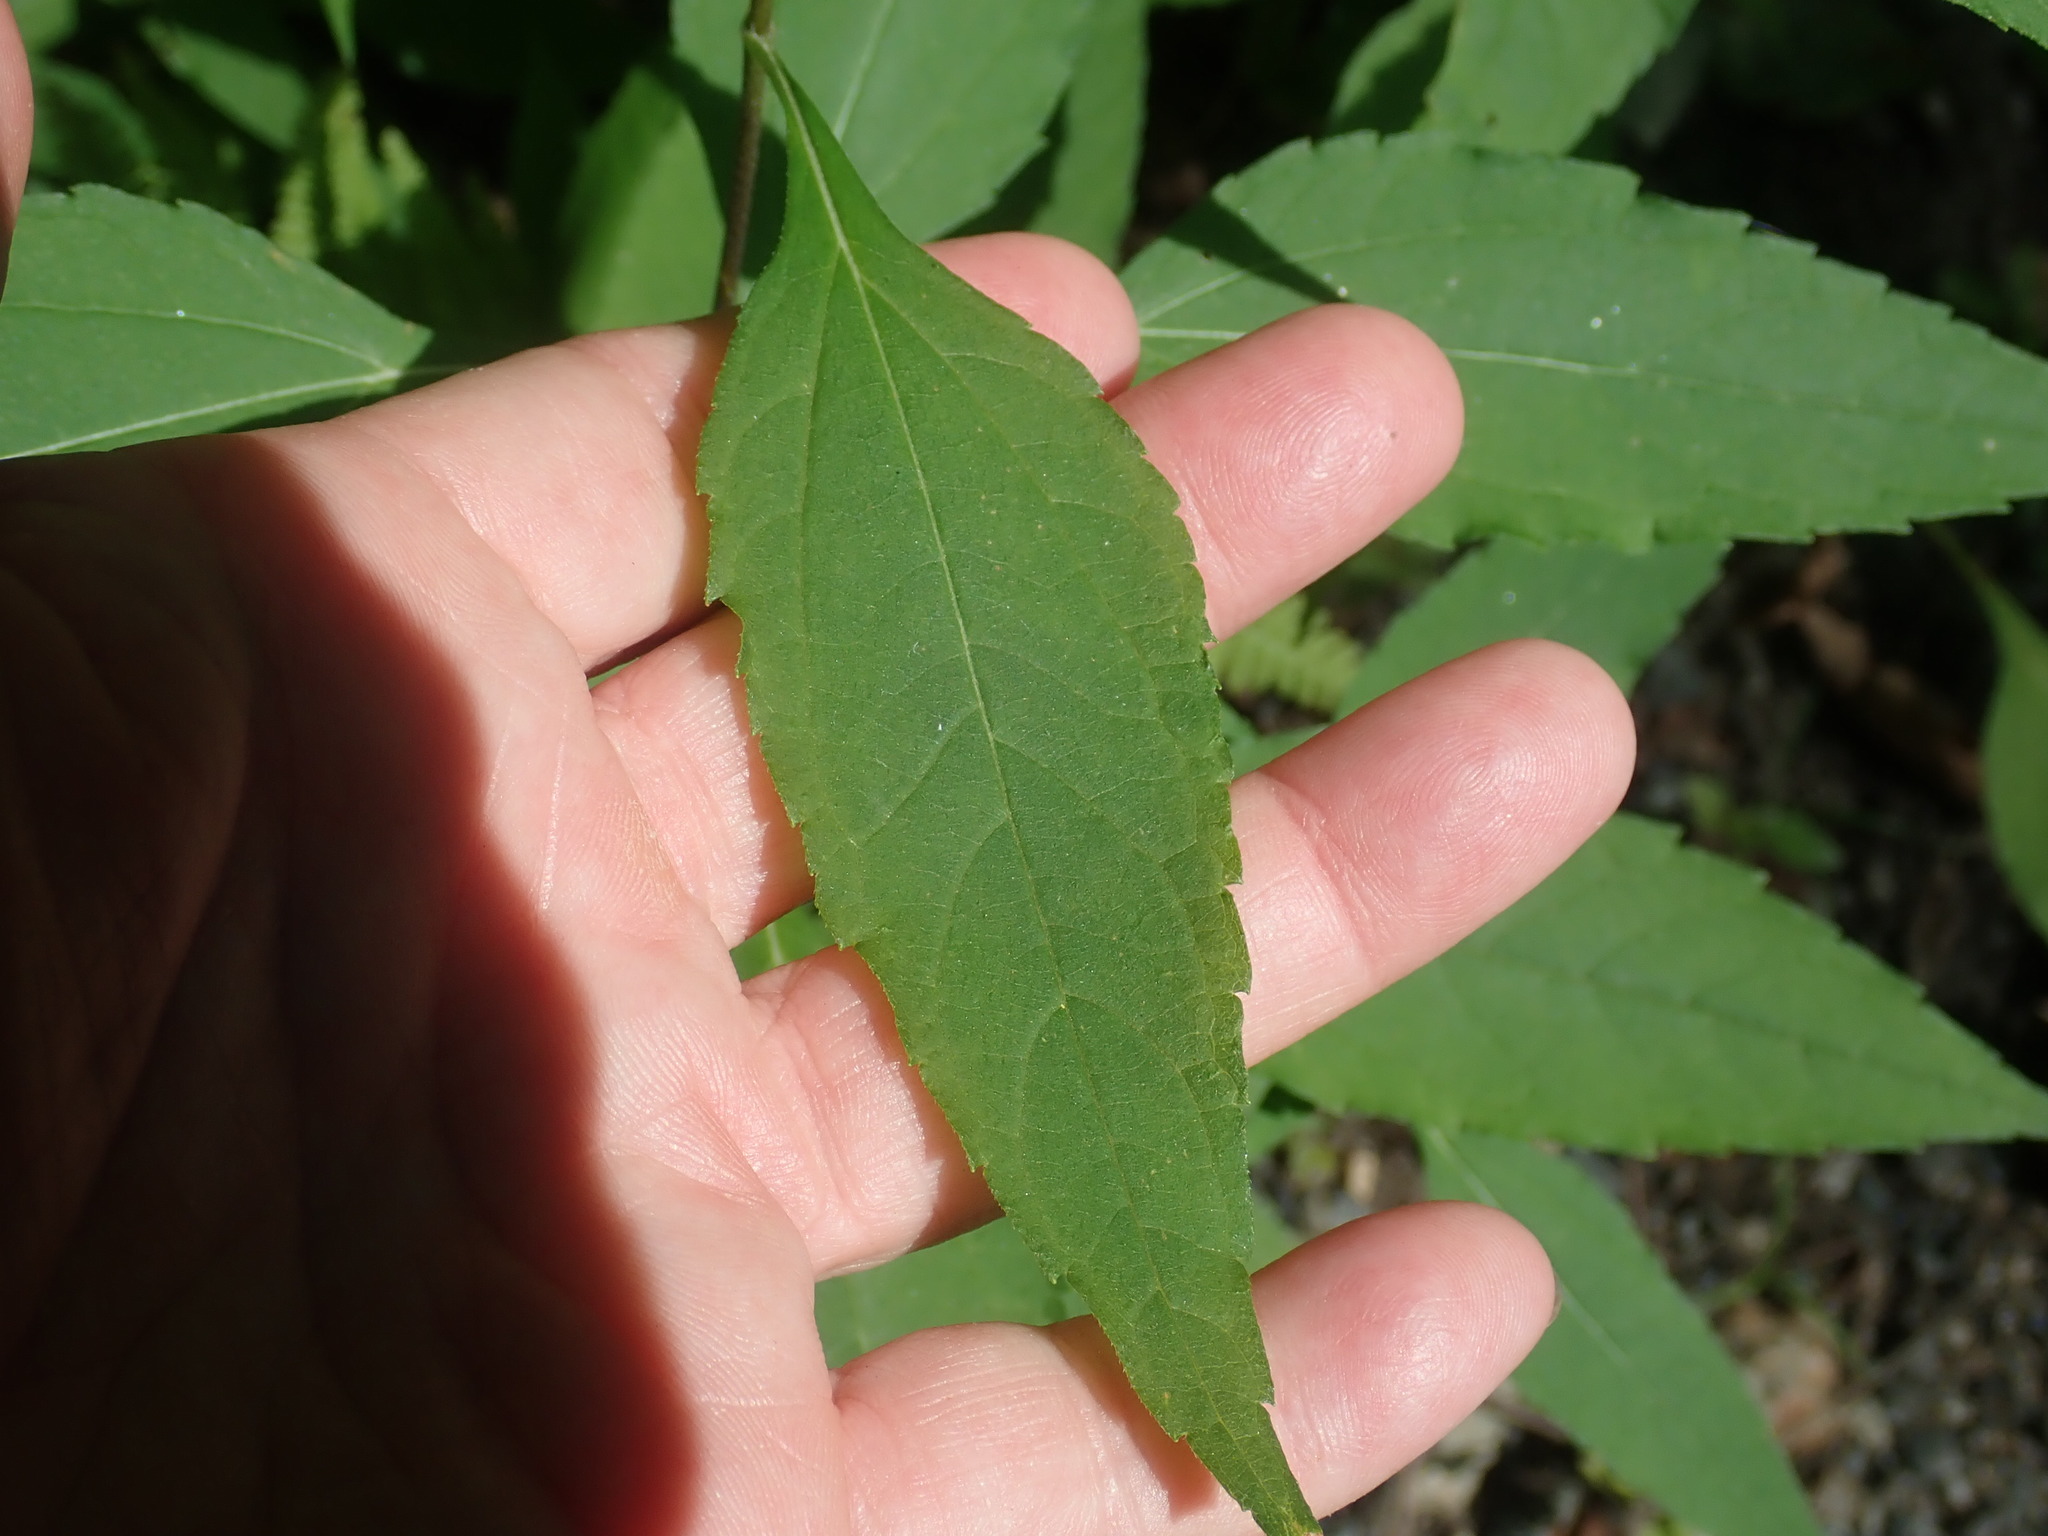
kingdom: Plantae
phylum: Tracheophyta
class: Magnoliopsida
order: Asterales
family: Asteraceae
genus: Helianthus
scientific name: Helianthus decapetalus
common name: Thin-leaved sunflower
